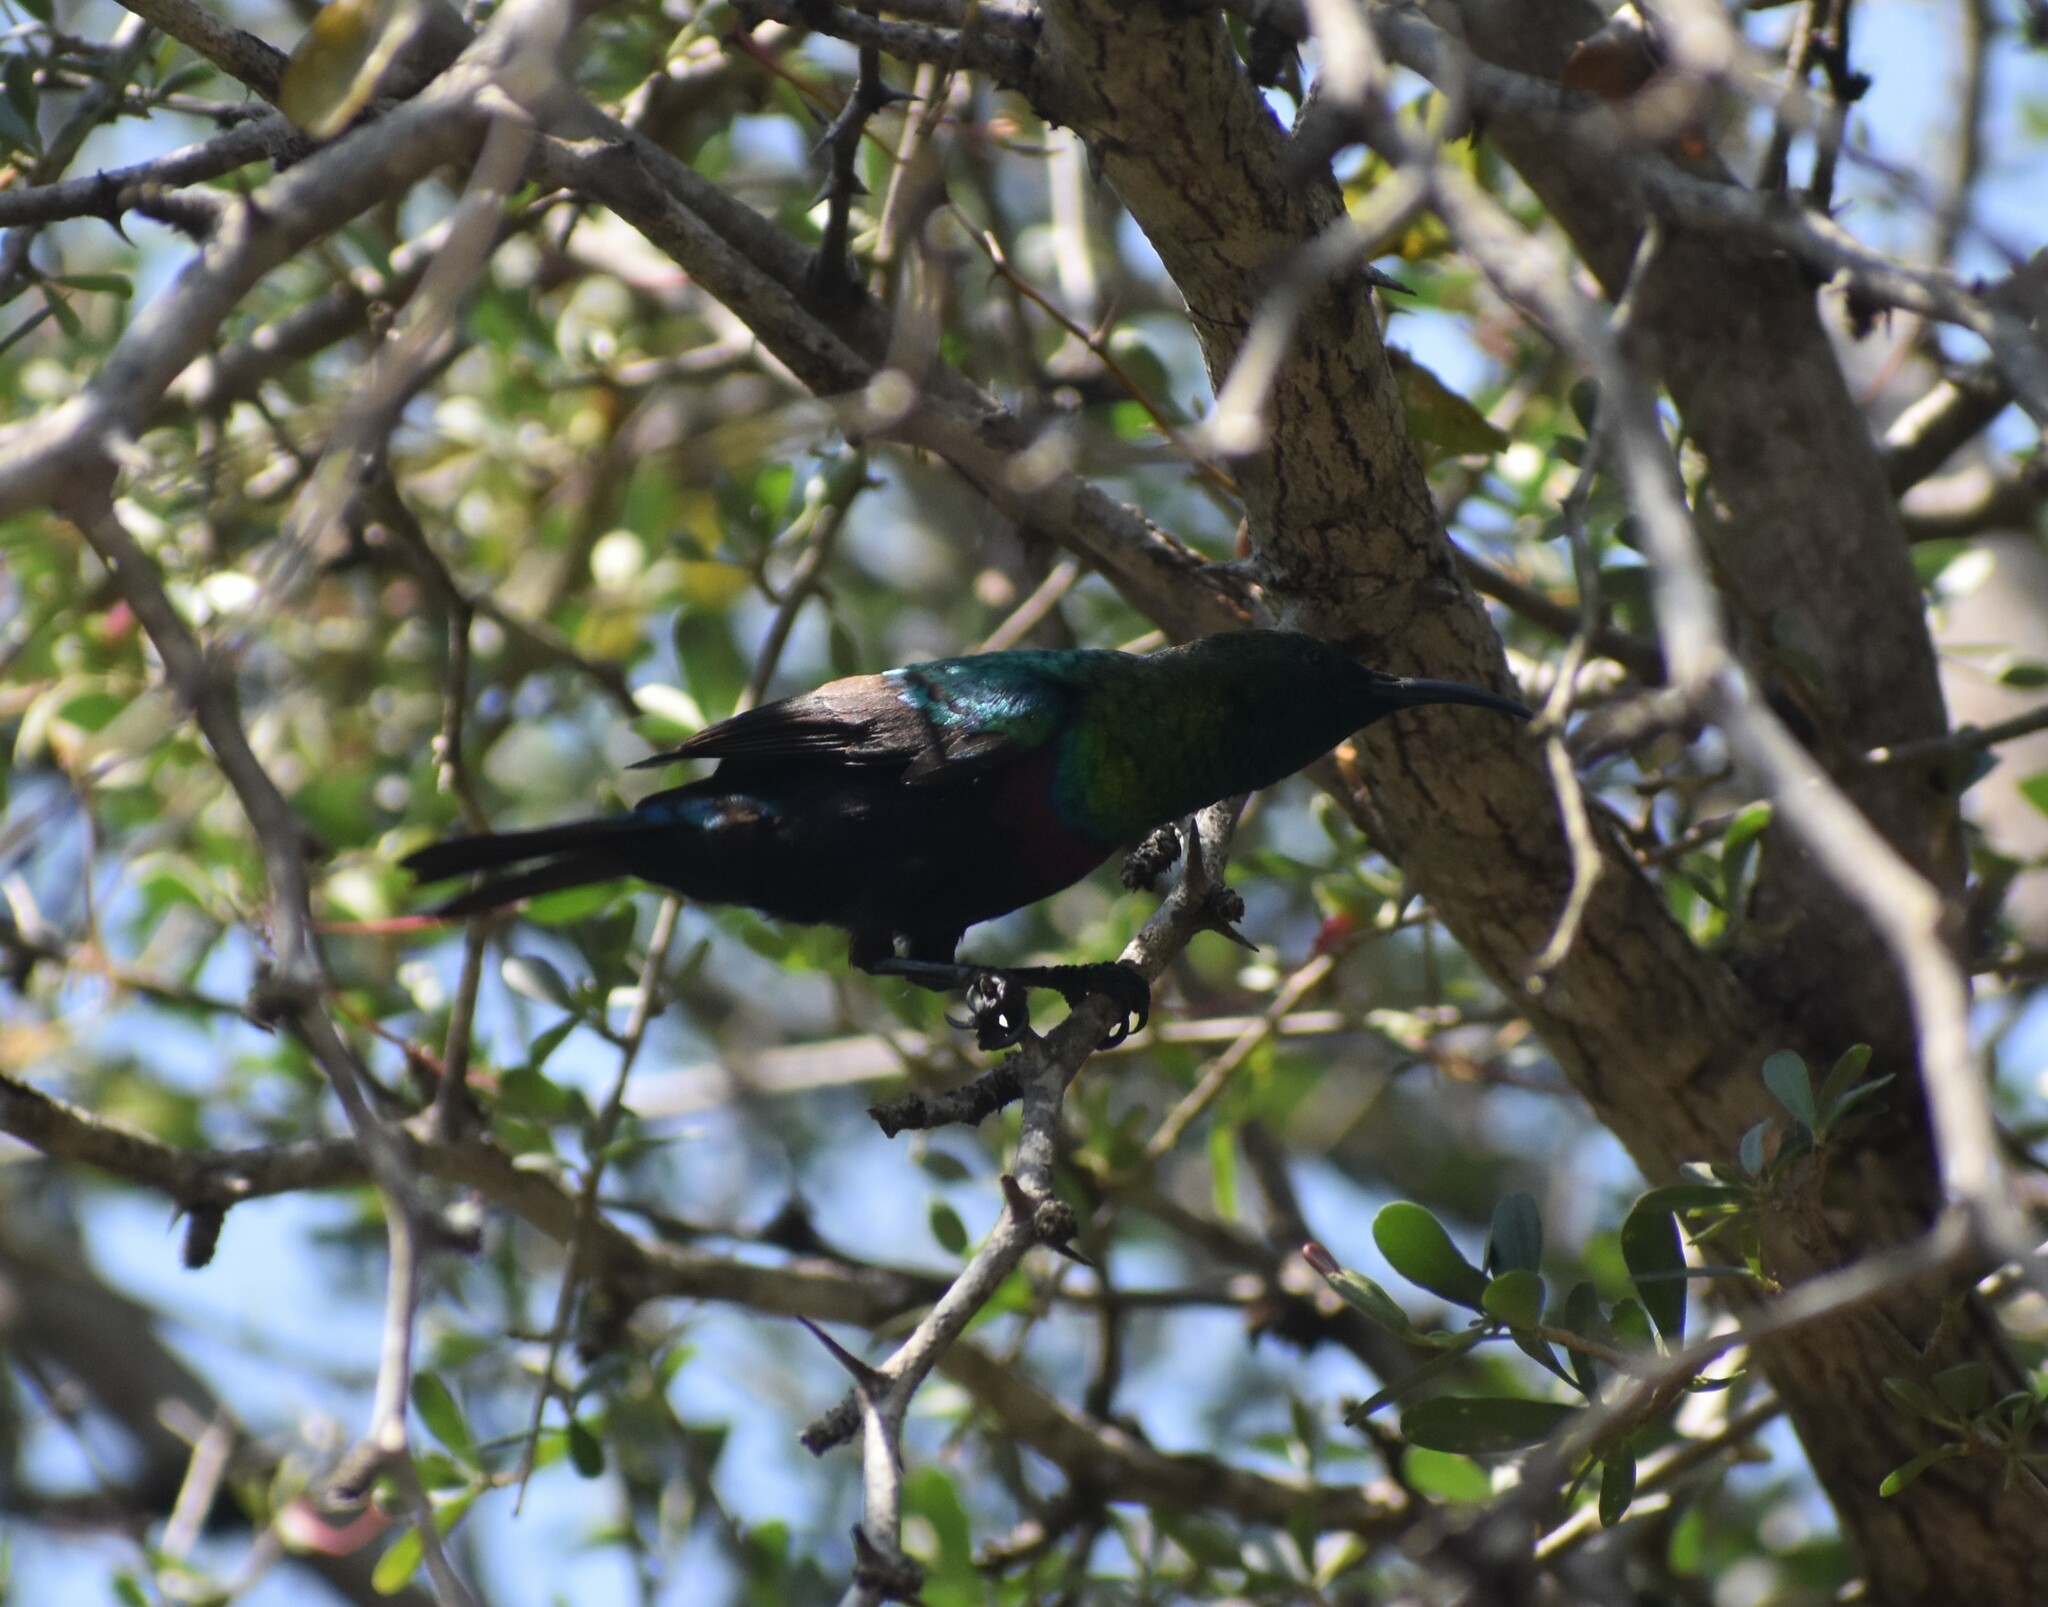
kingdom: Animalia
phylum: Chordata
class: Aves
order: Passeriformes
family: Nectariniidae
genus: Cinnyris
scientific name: Cinnyris mariquensis
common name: Marico sunbird
